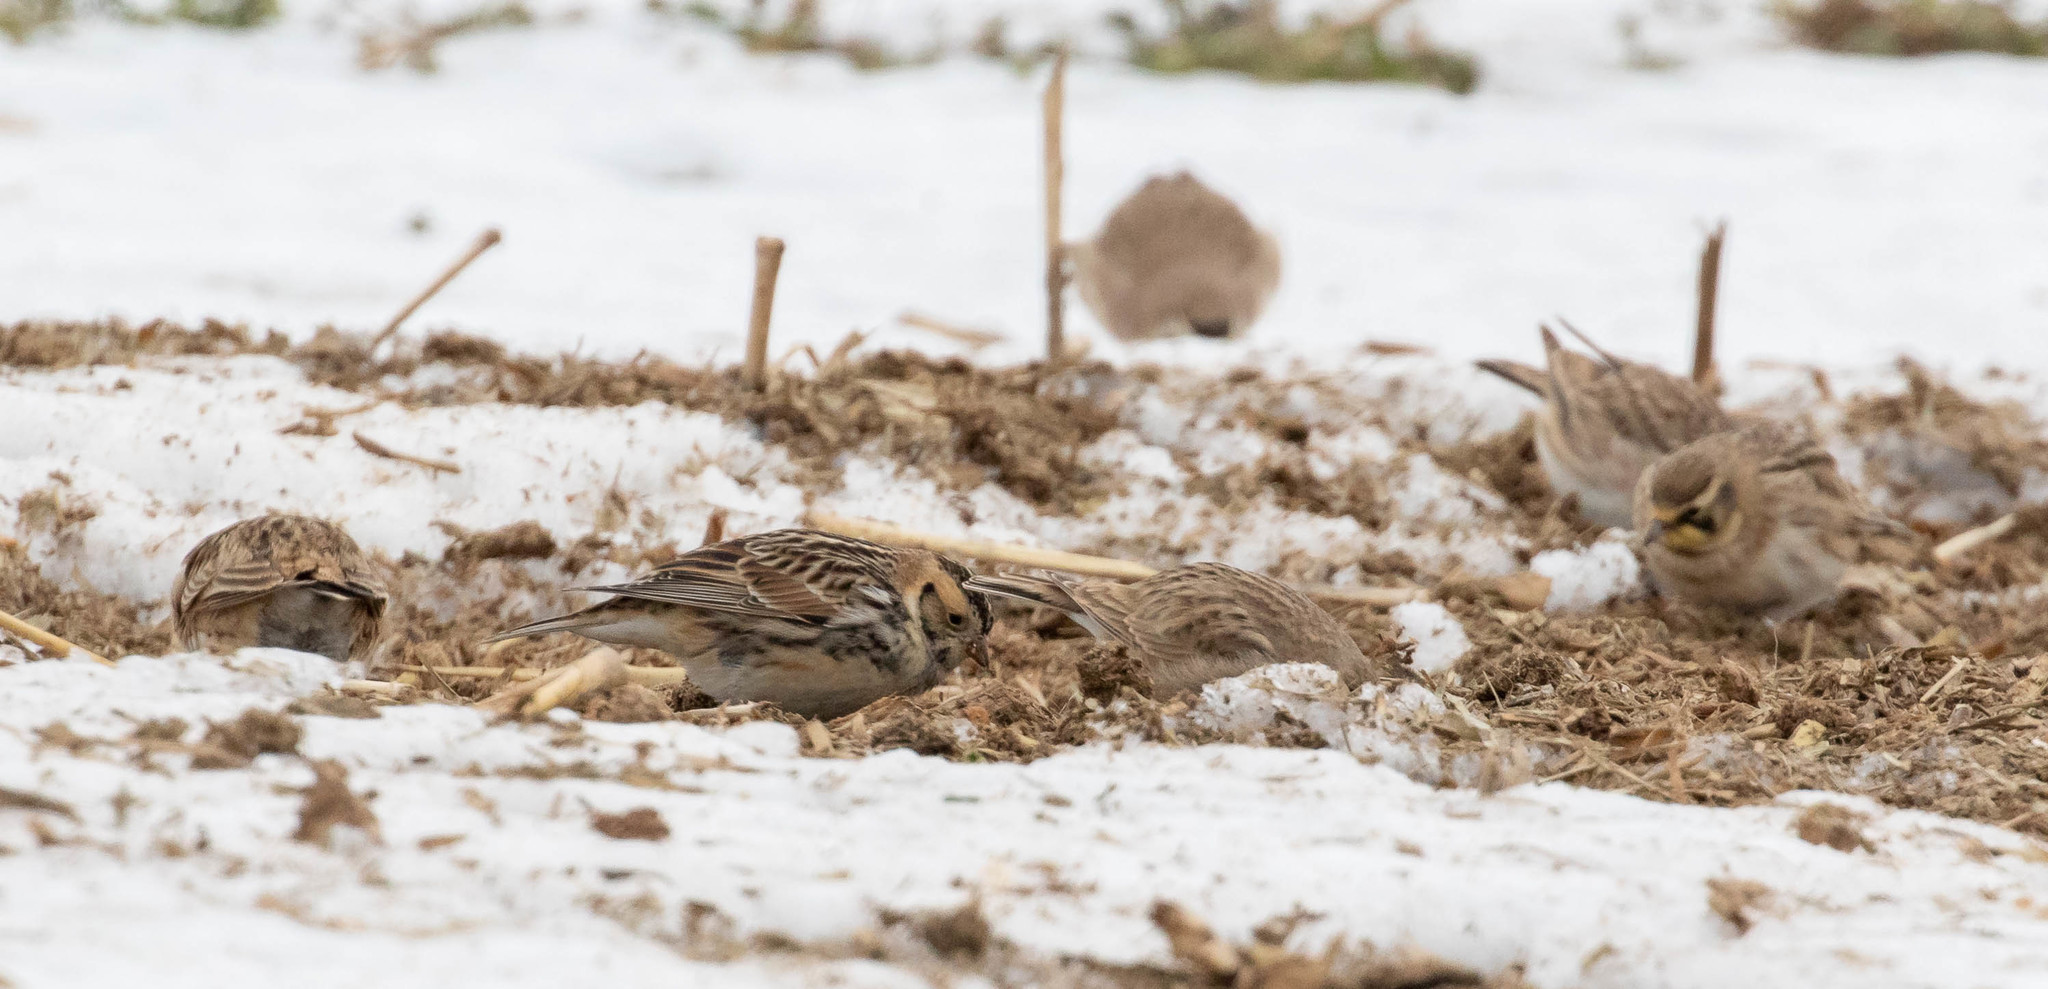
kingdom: Animalia
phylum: Chordata
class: Aves
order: Passeriformes
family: Calcariidae
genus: Calcarius
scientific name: Calcarius lapponicus
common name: Lapland longspur
